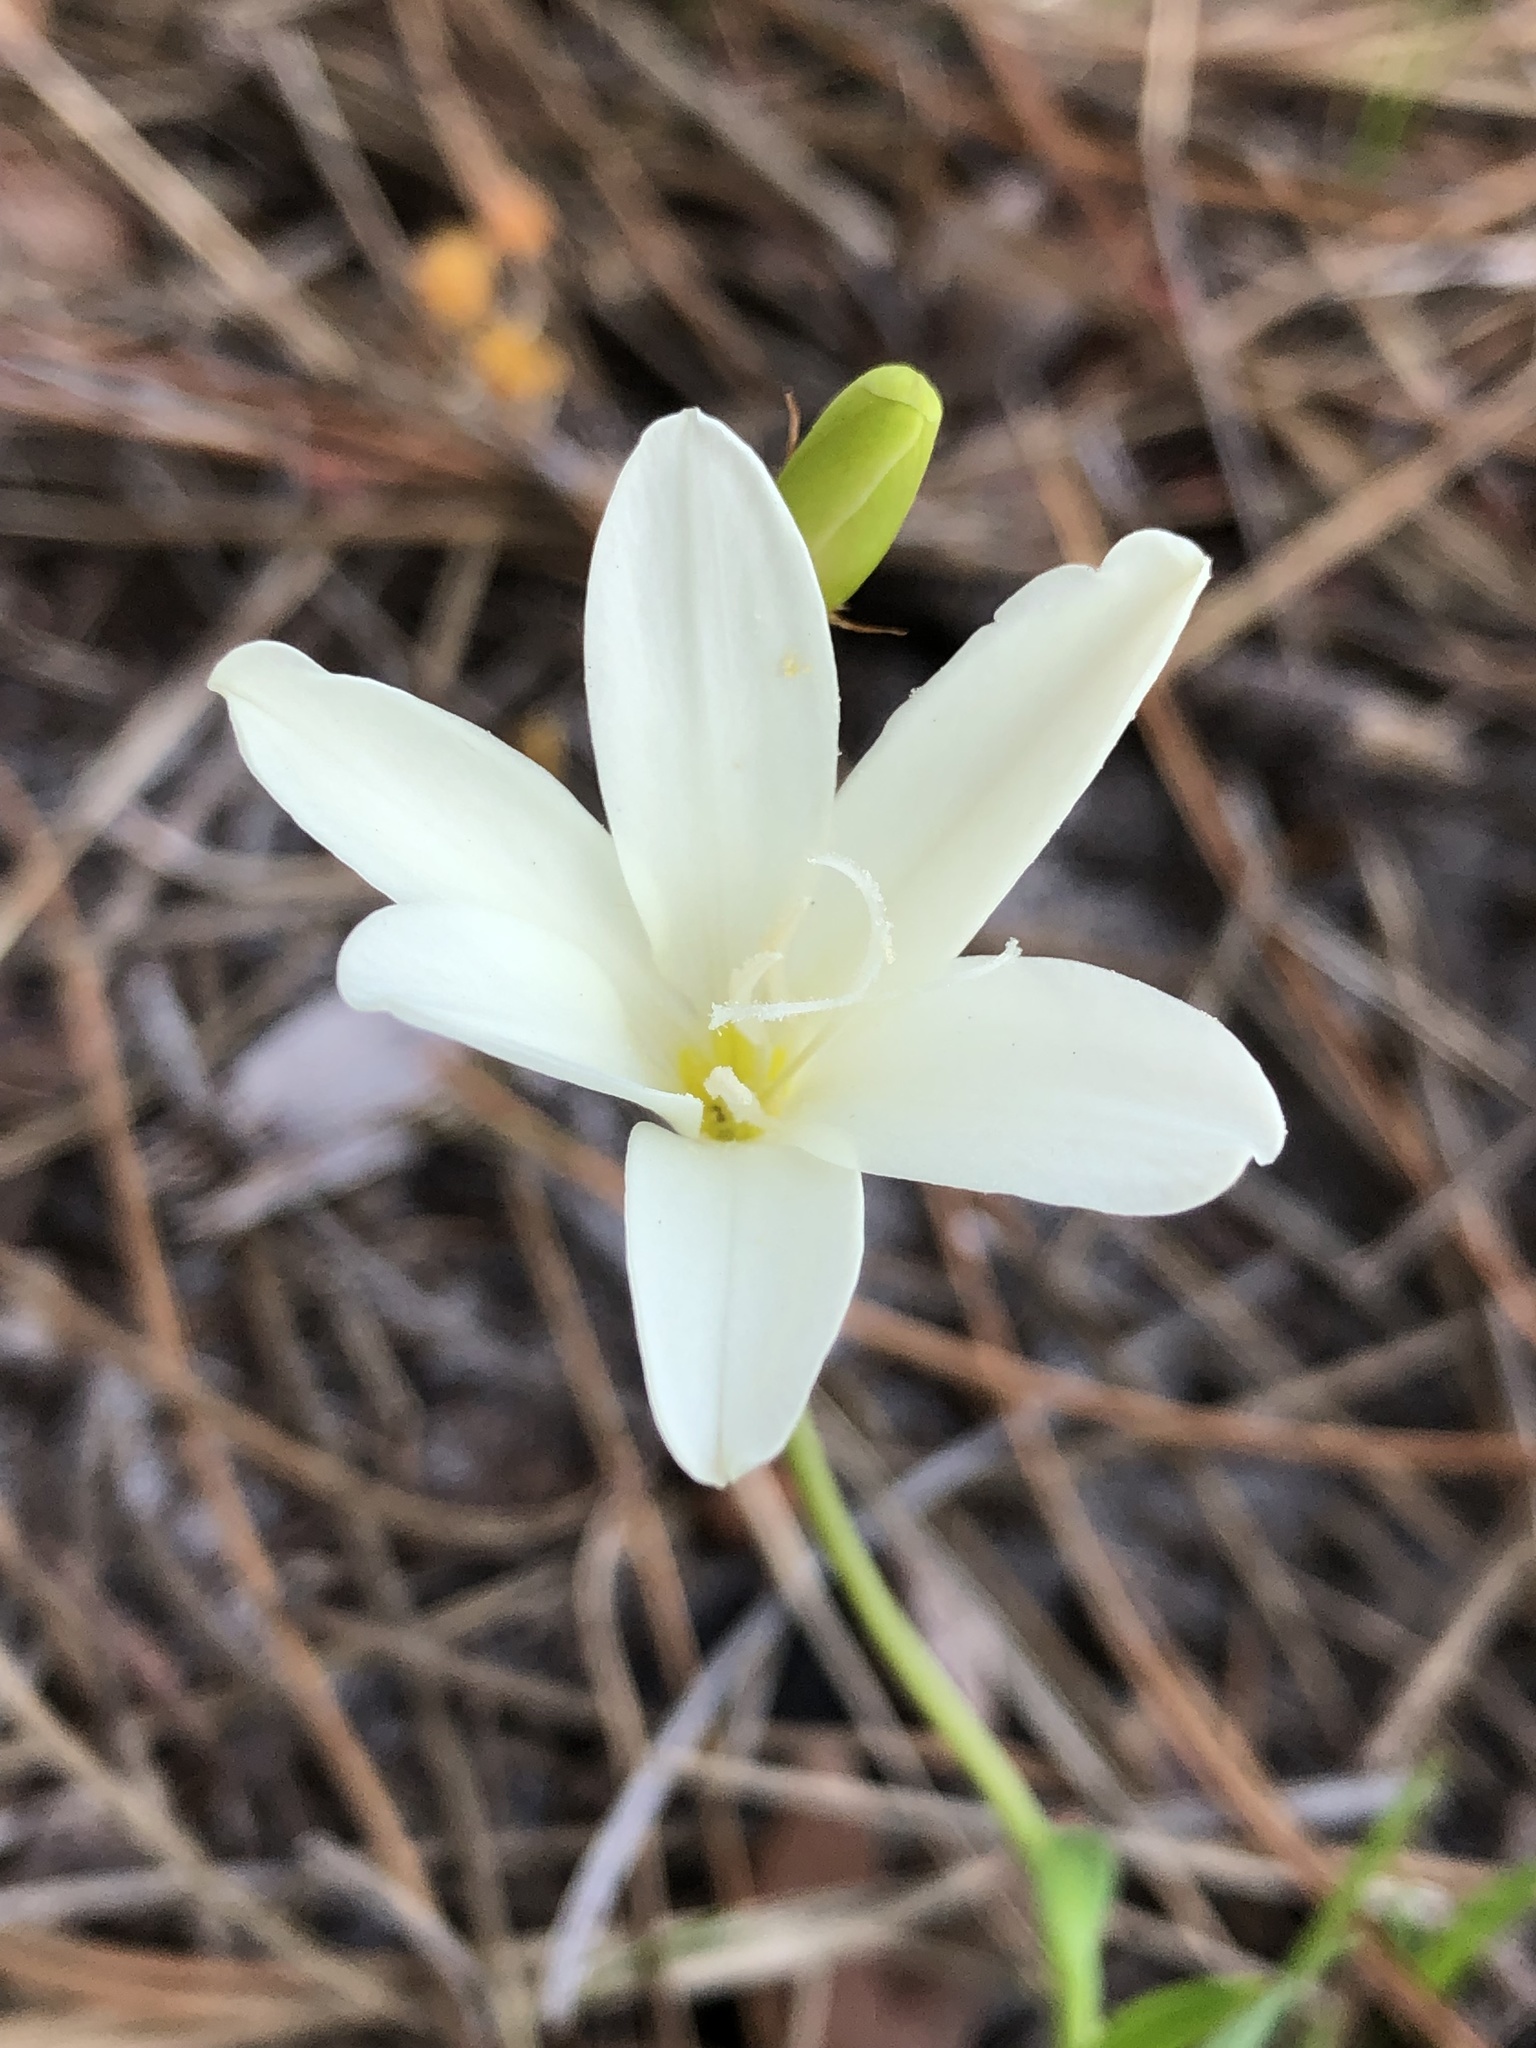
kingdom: Plantae
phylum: Tracheophyta
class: Liliopsida
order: Asparagales
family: Iridaceae
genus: Sparaxis
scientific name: Sparaxis bulbifera
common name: Harlequin-flower
